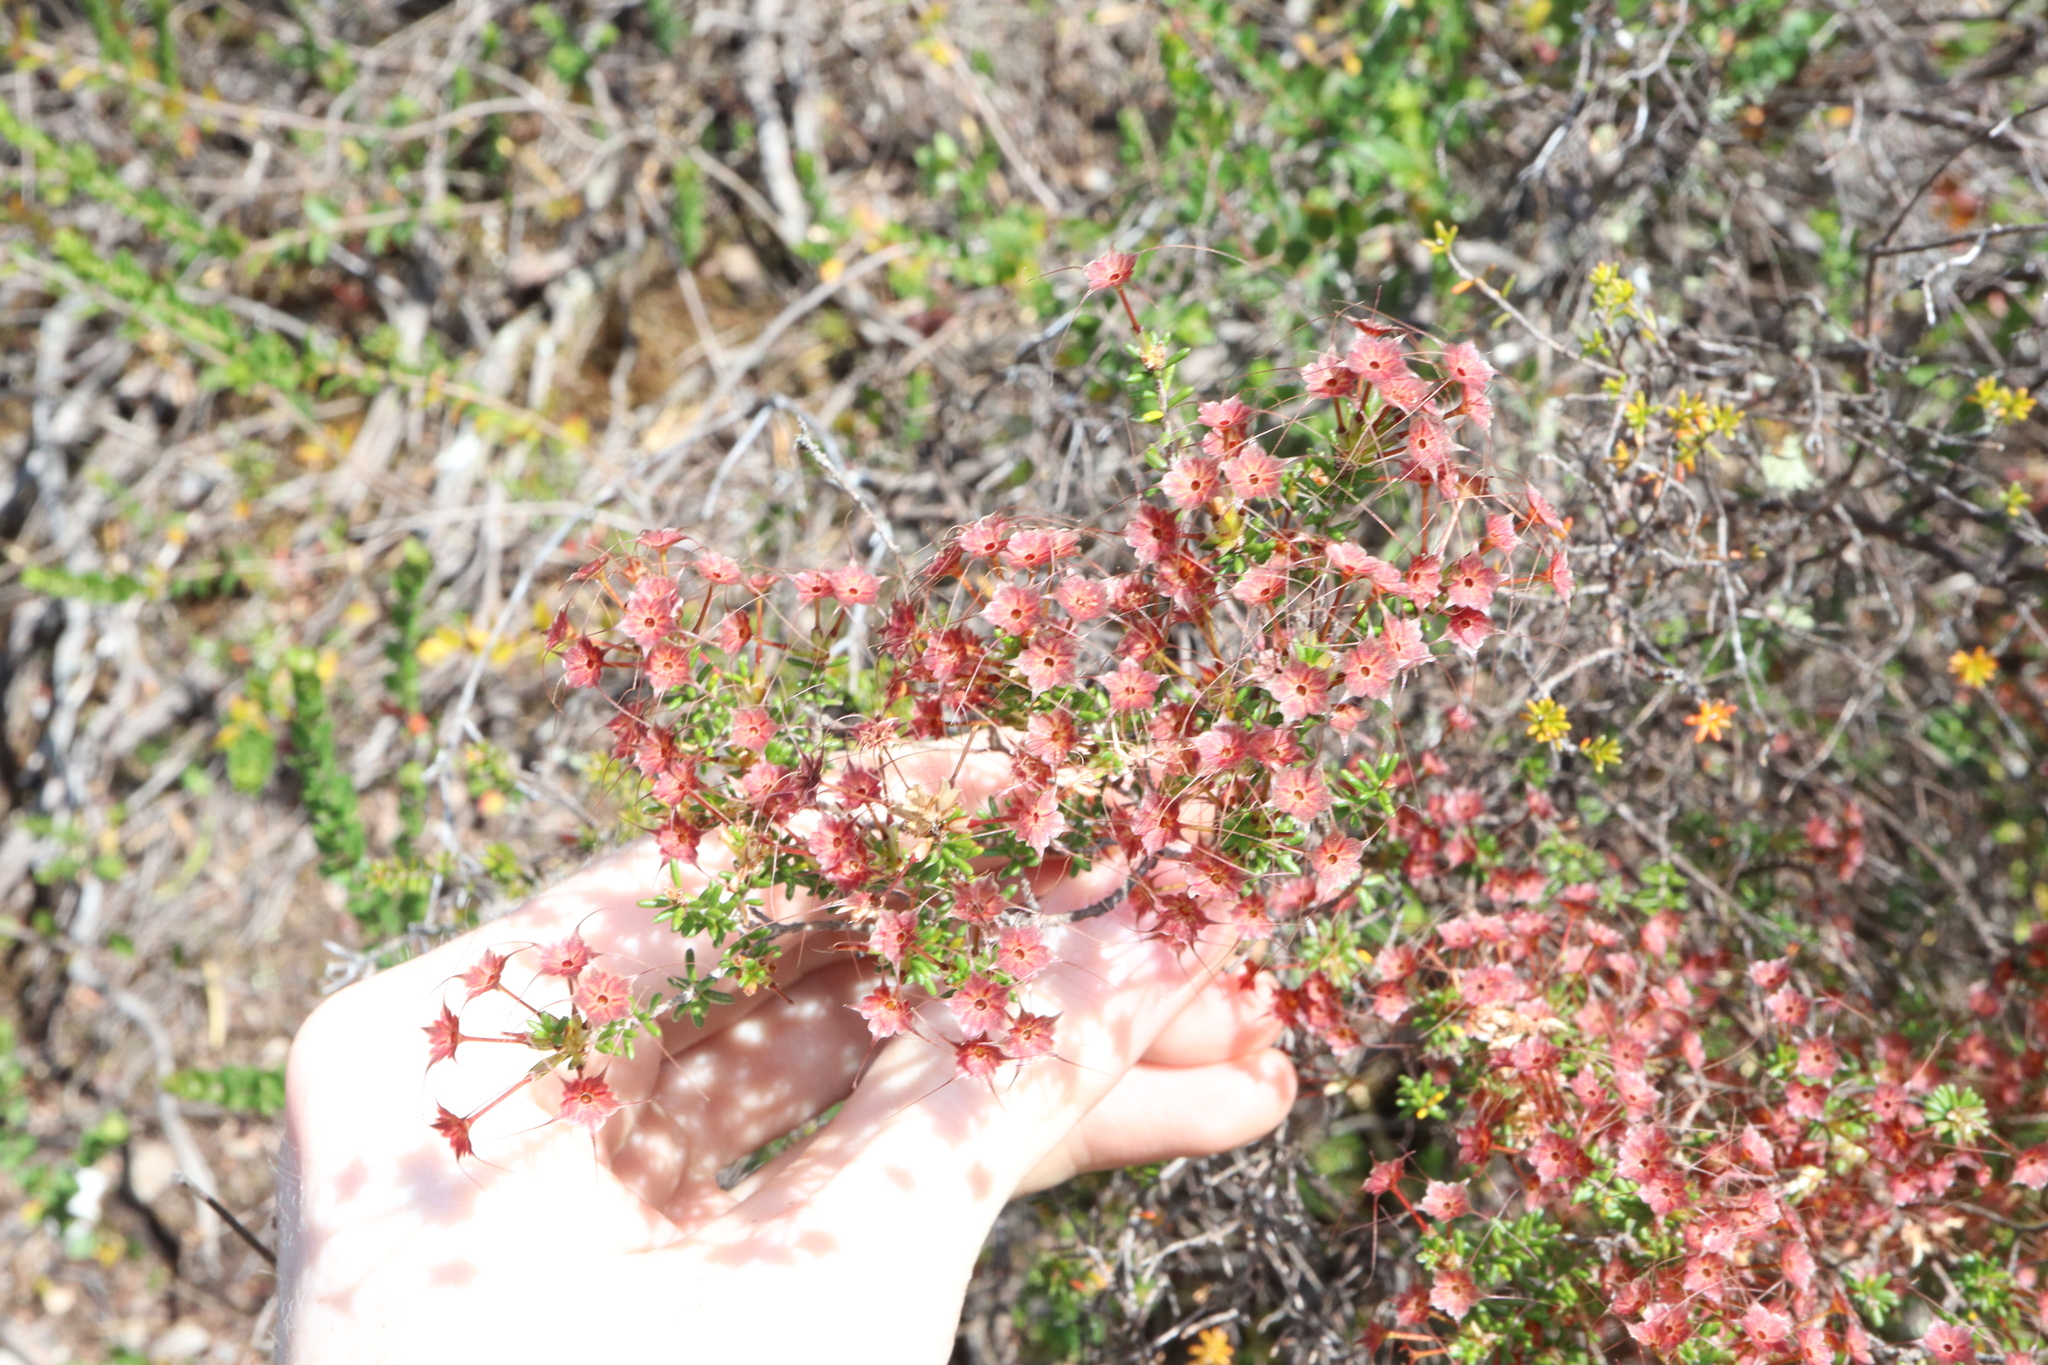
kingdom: Plantae
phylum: Tracheophyta
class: Magnoliopsida
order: Myrtales
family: Myrtaceae
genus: Calytrix
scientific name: Calytrix tetragona
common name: Common fringe myrtle
